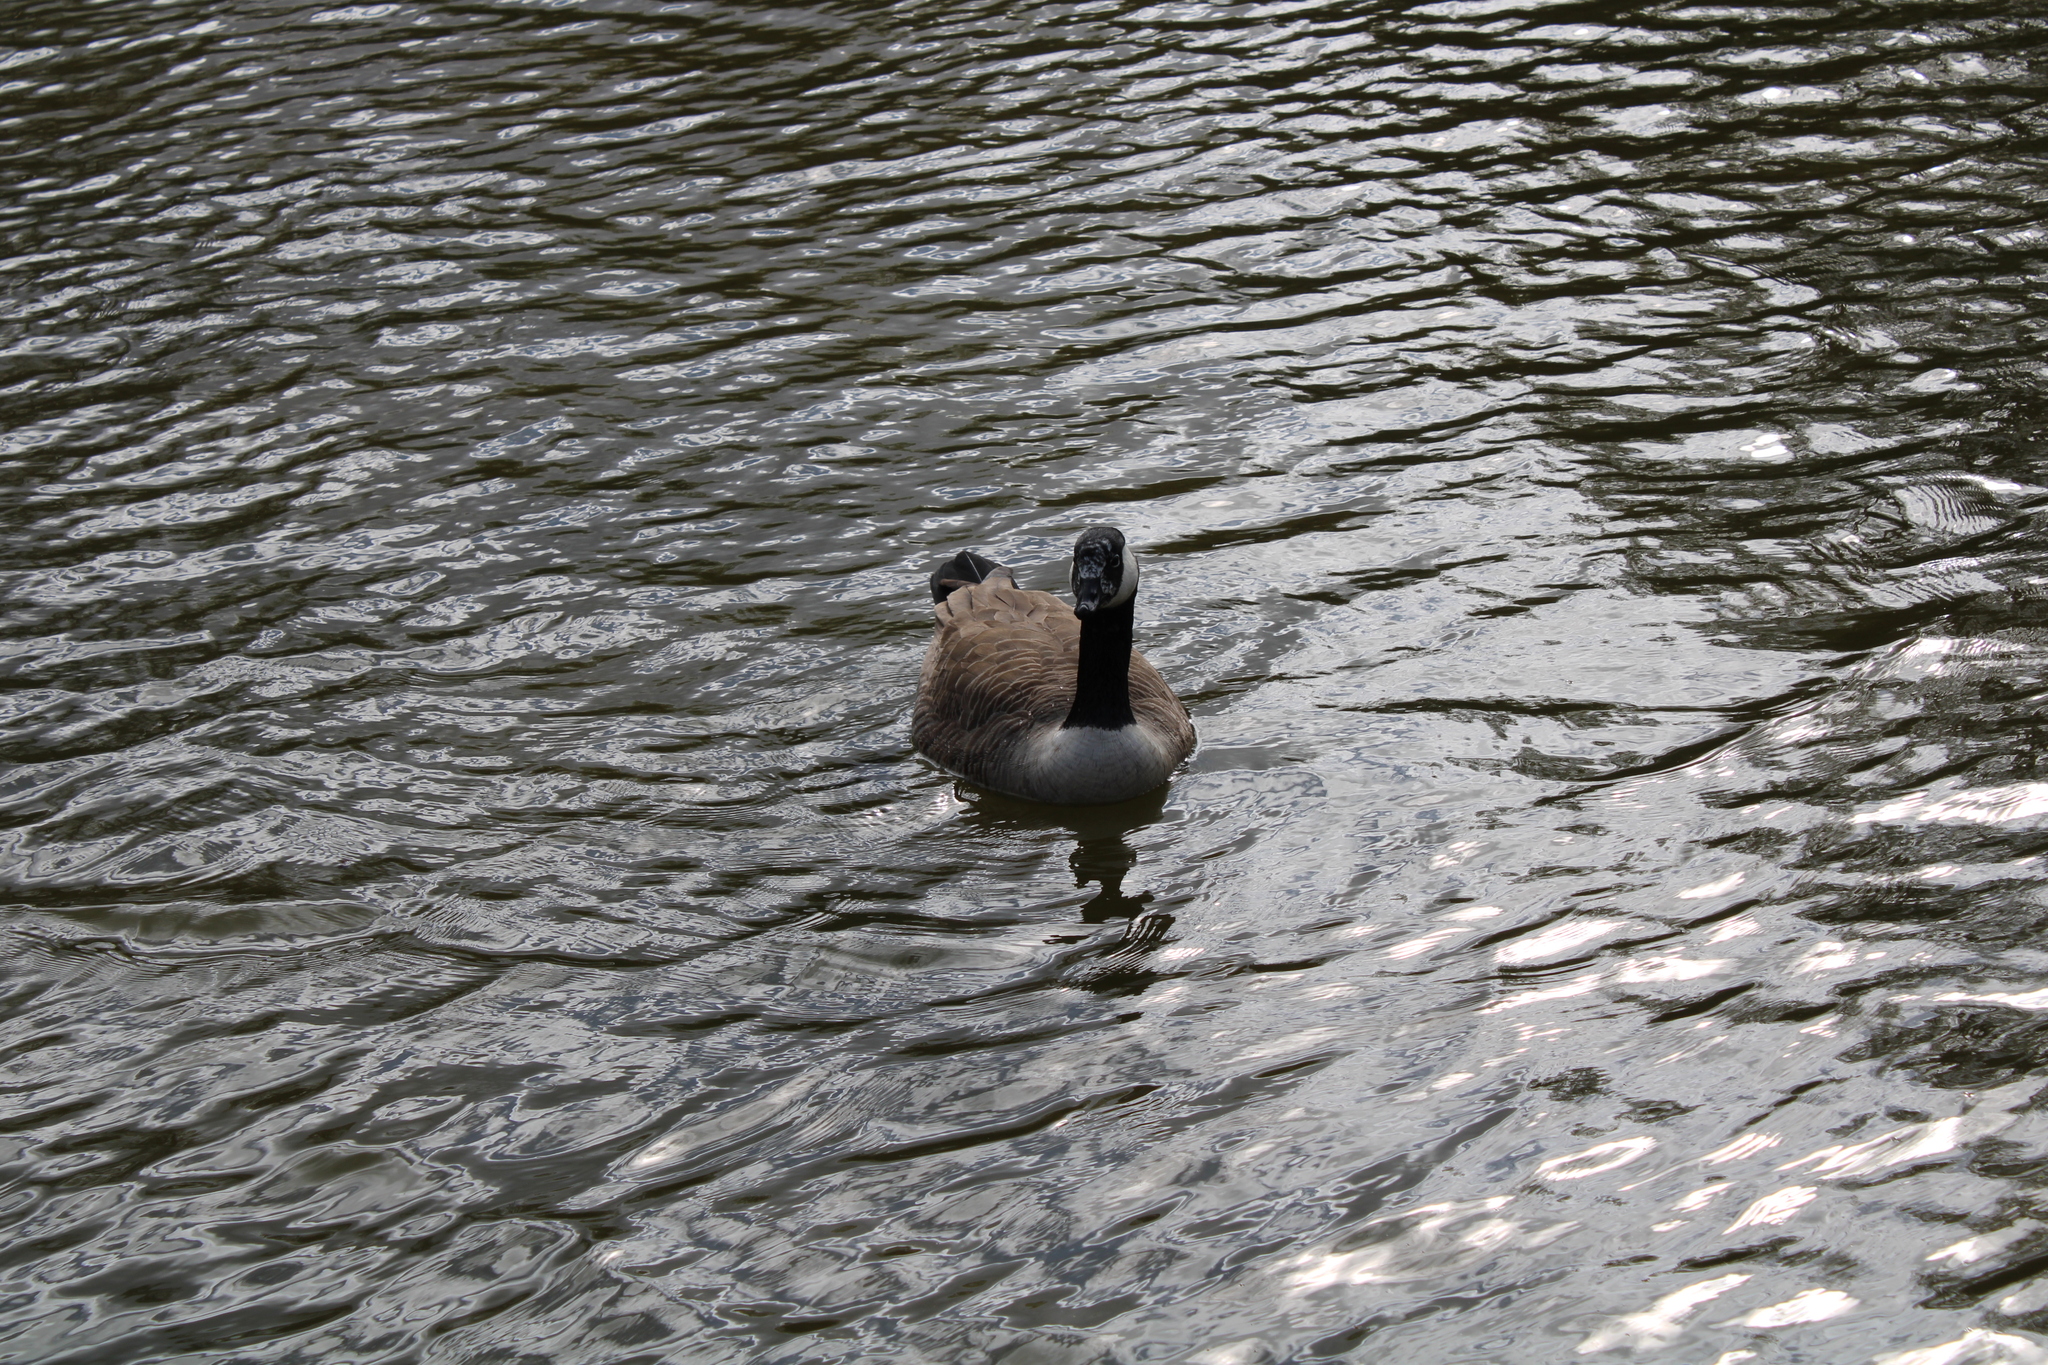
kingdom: Animalia
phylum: Chordata
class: Aves
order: Anseriformes
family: Anatidae
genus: Branta
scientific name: Branta canadensis
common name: Canada goose
